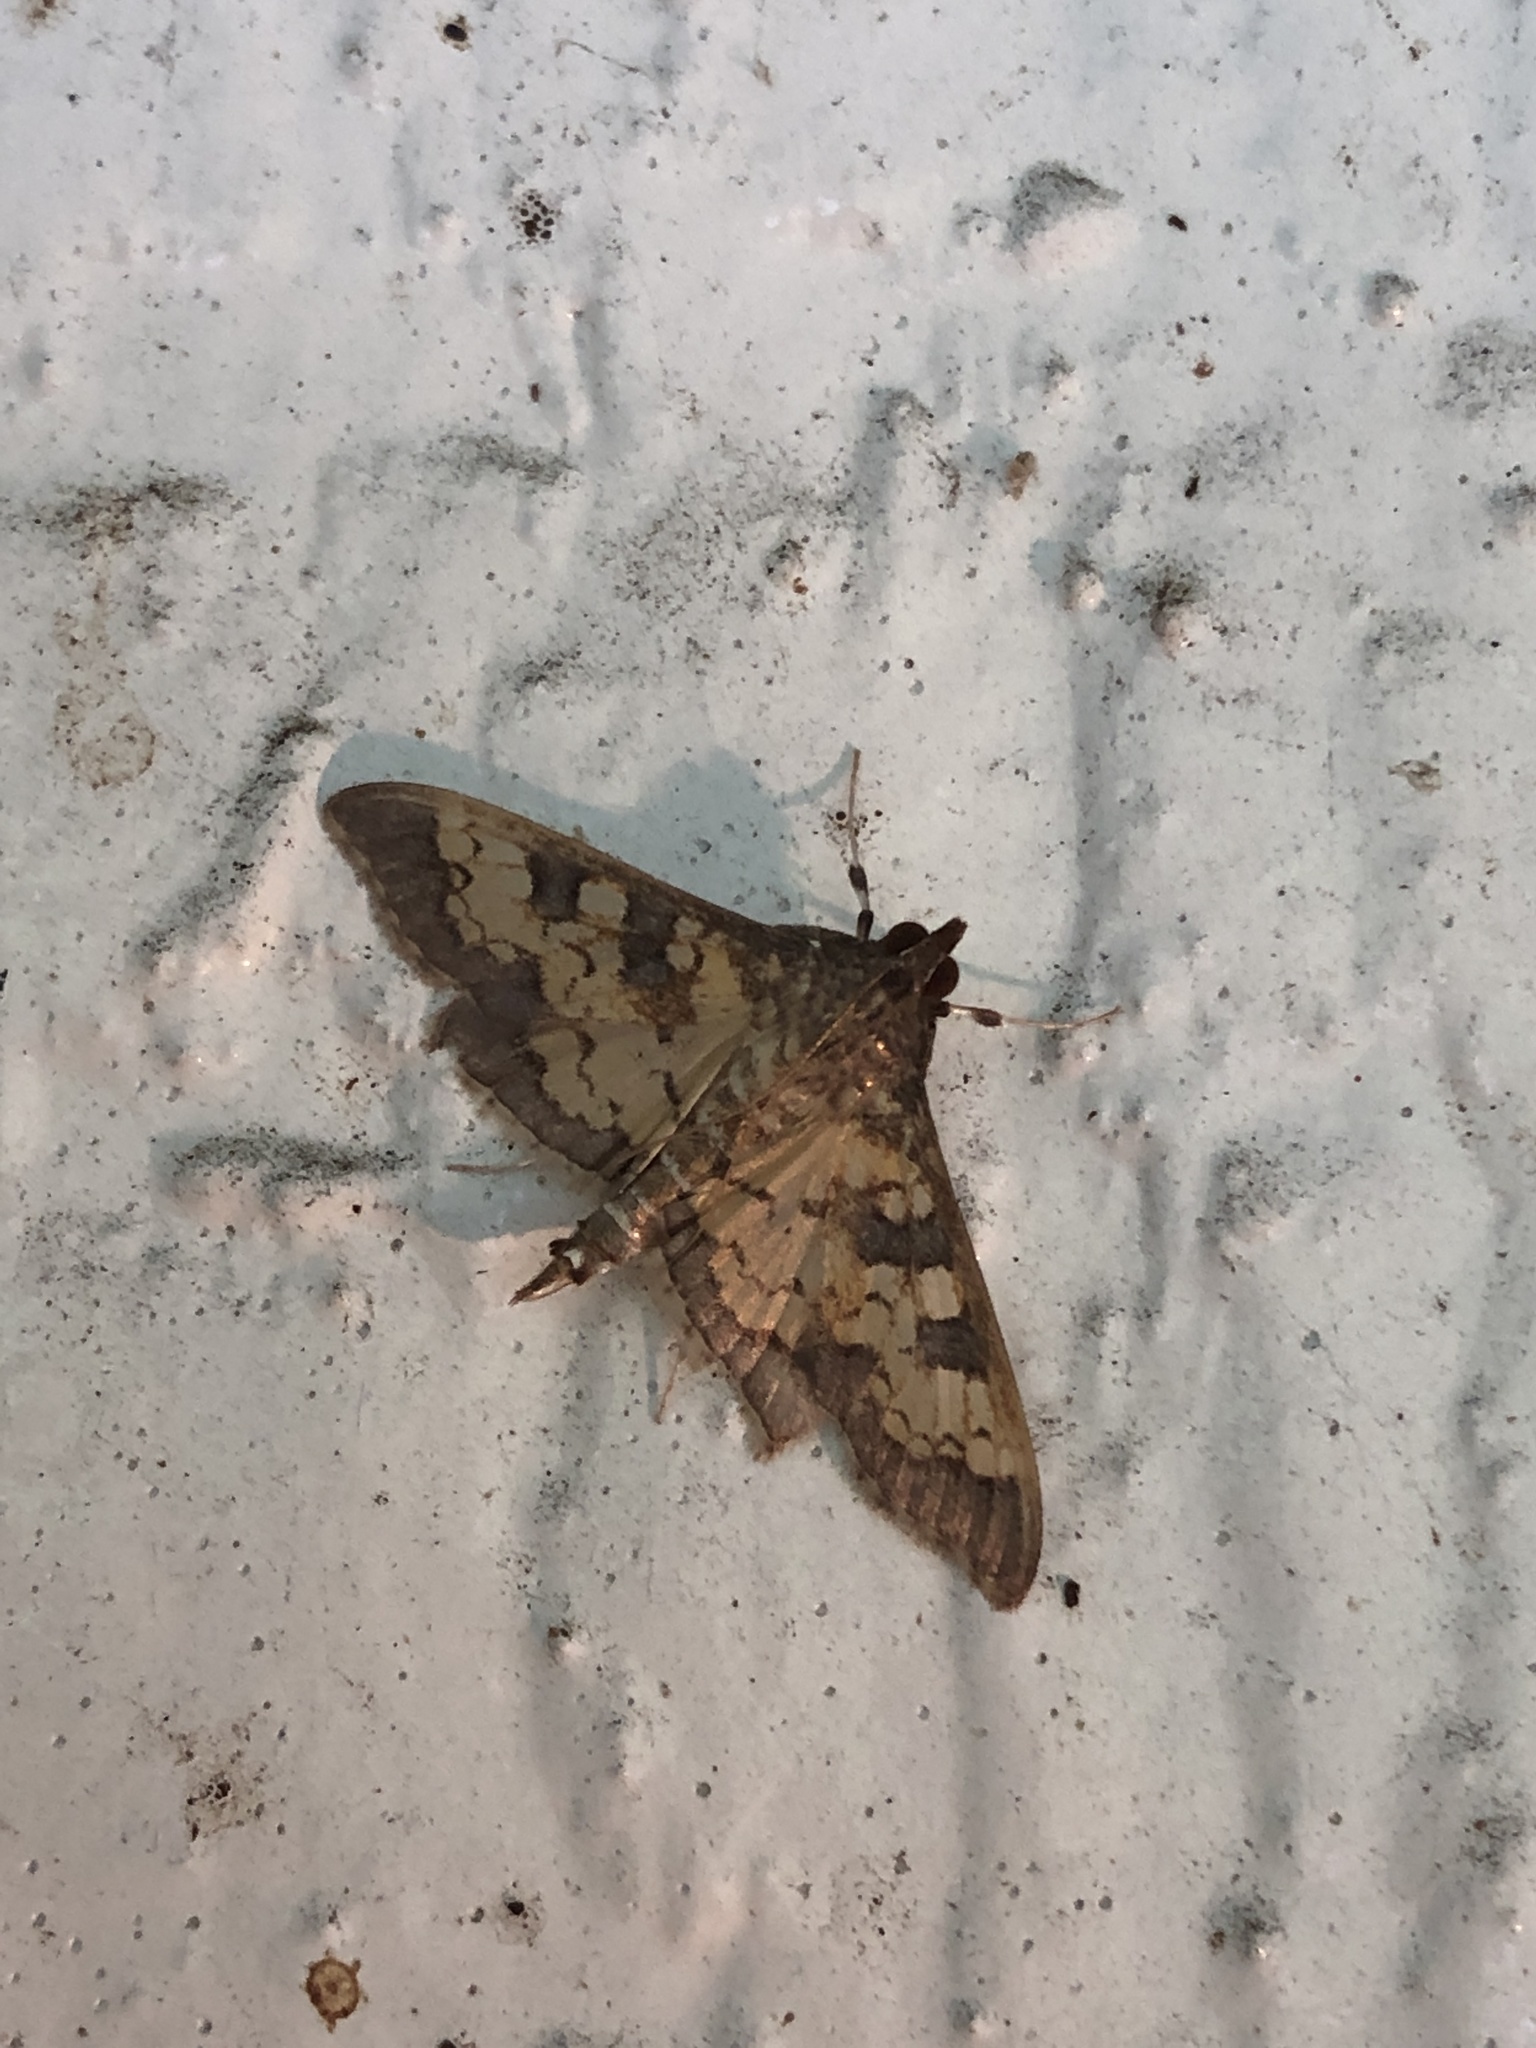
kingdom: Animalia
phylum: Arthropoda
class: Insecta
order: Lepidoptera
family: Crambidae
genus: Cryptographis
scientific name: Cryptographis elealis
